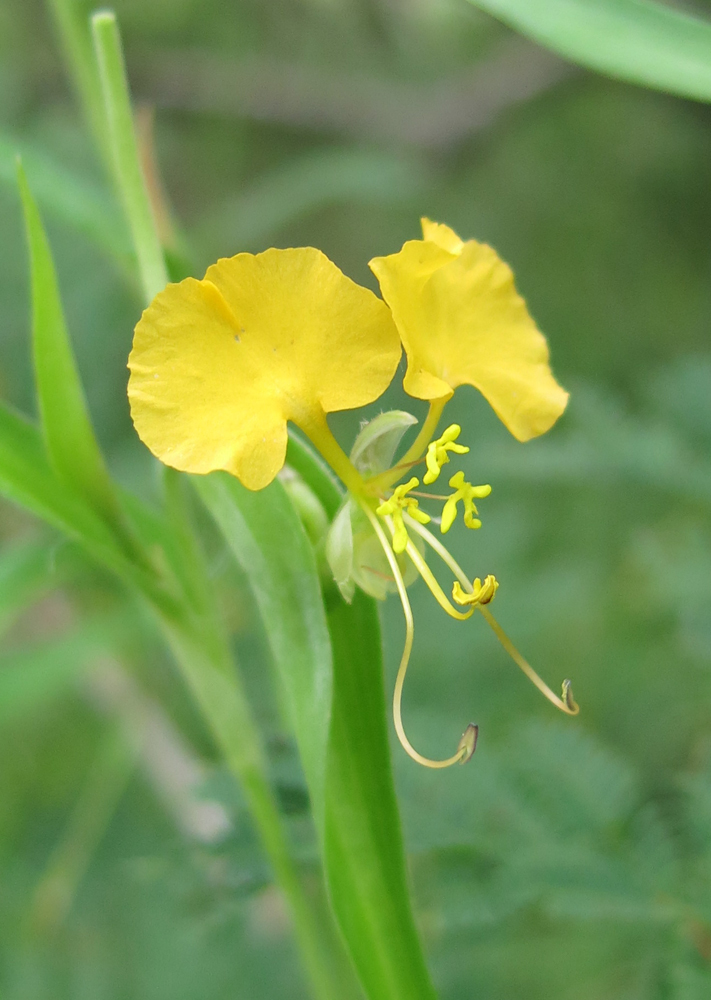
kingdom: Plantae
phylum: Tracheophyta
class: Liliopsida
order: Commelinales
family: Commelinaceae
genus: Commelina
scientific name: Commelina africana
